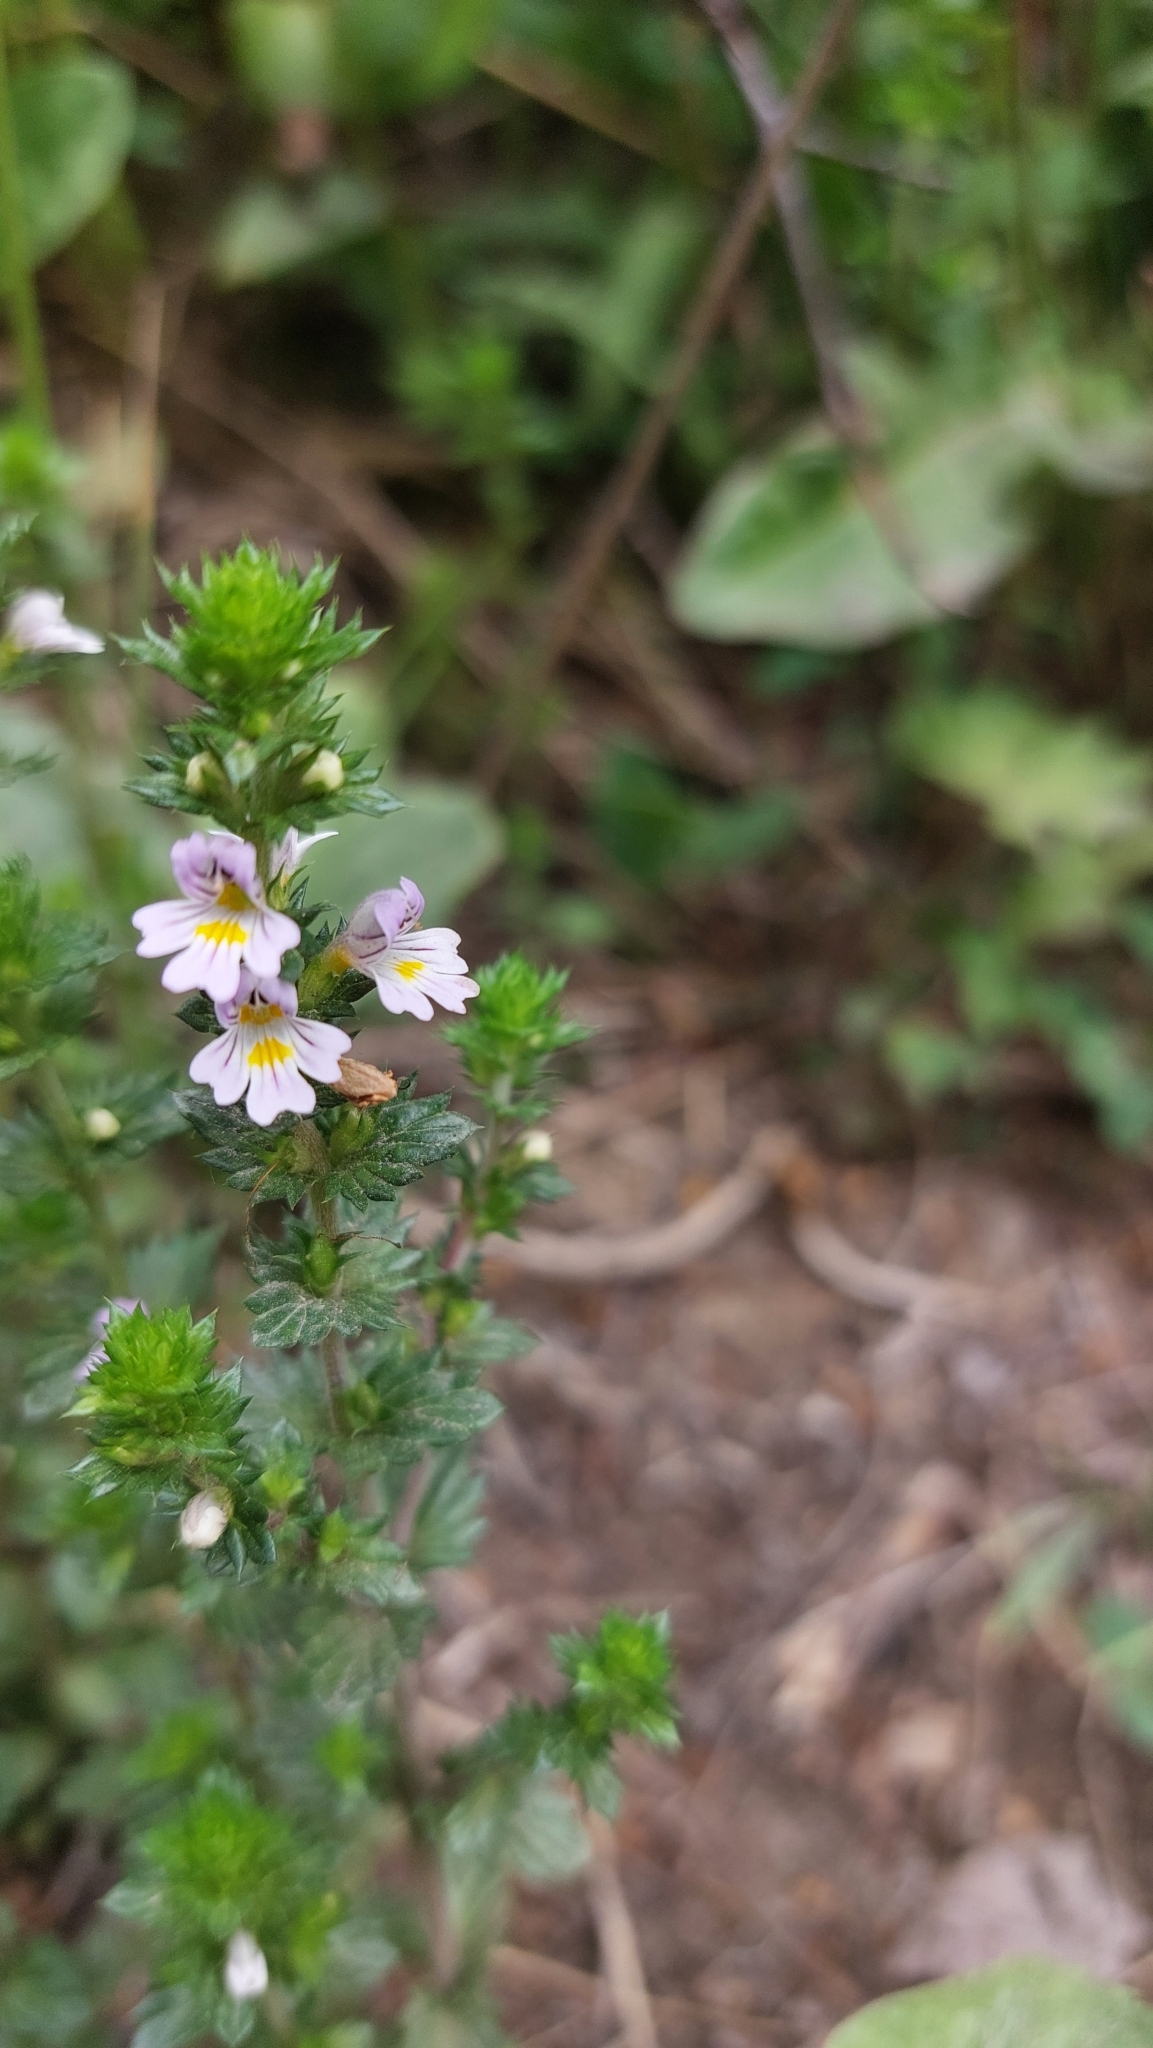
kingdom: Plantae
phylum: Tracheophyta
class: Magnoliopsida
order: Lamiales
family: Orobanchaceae
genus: Euphrasia
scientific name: Euphrasia maximowiczii
